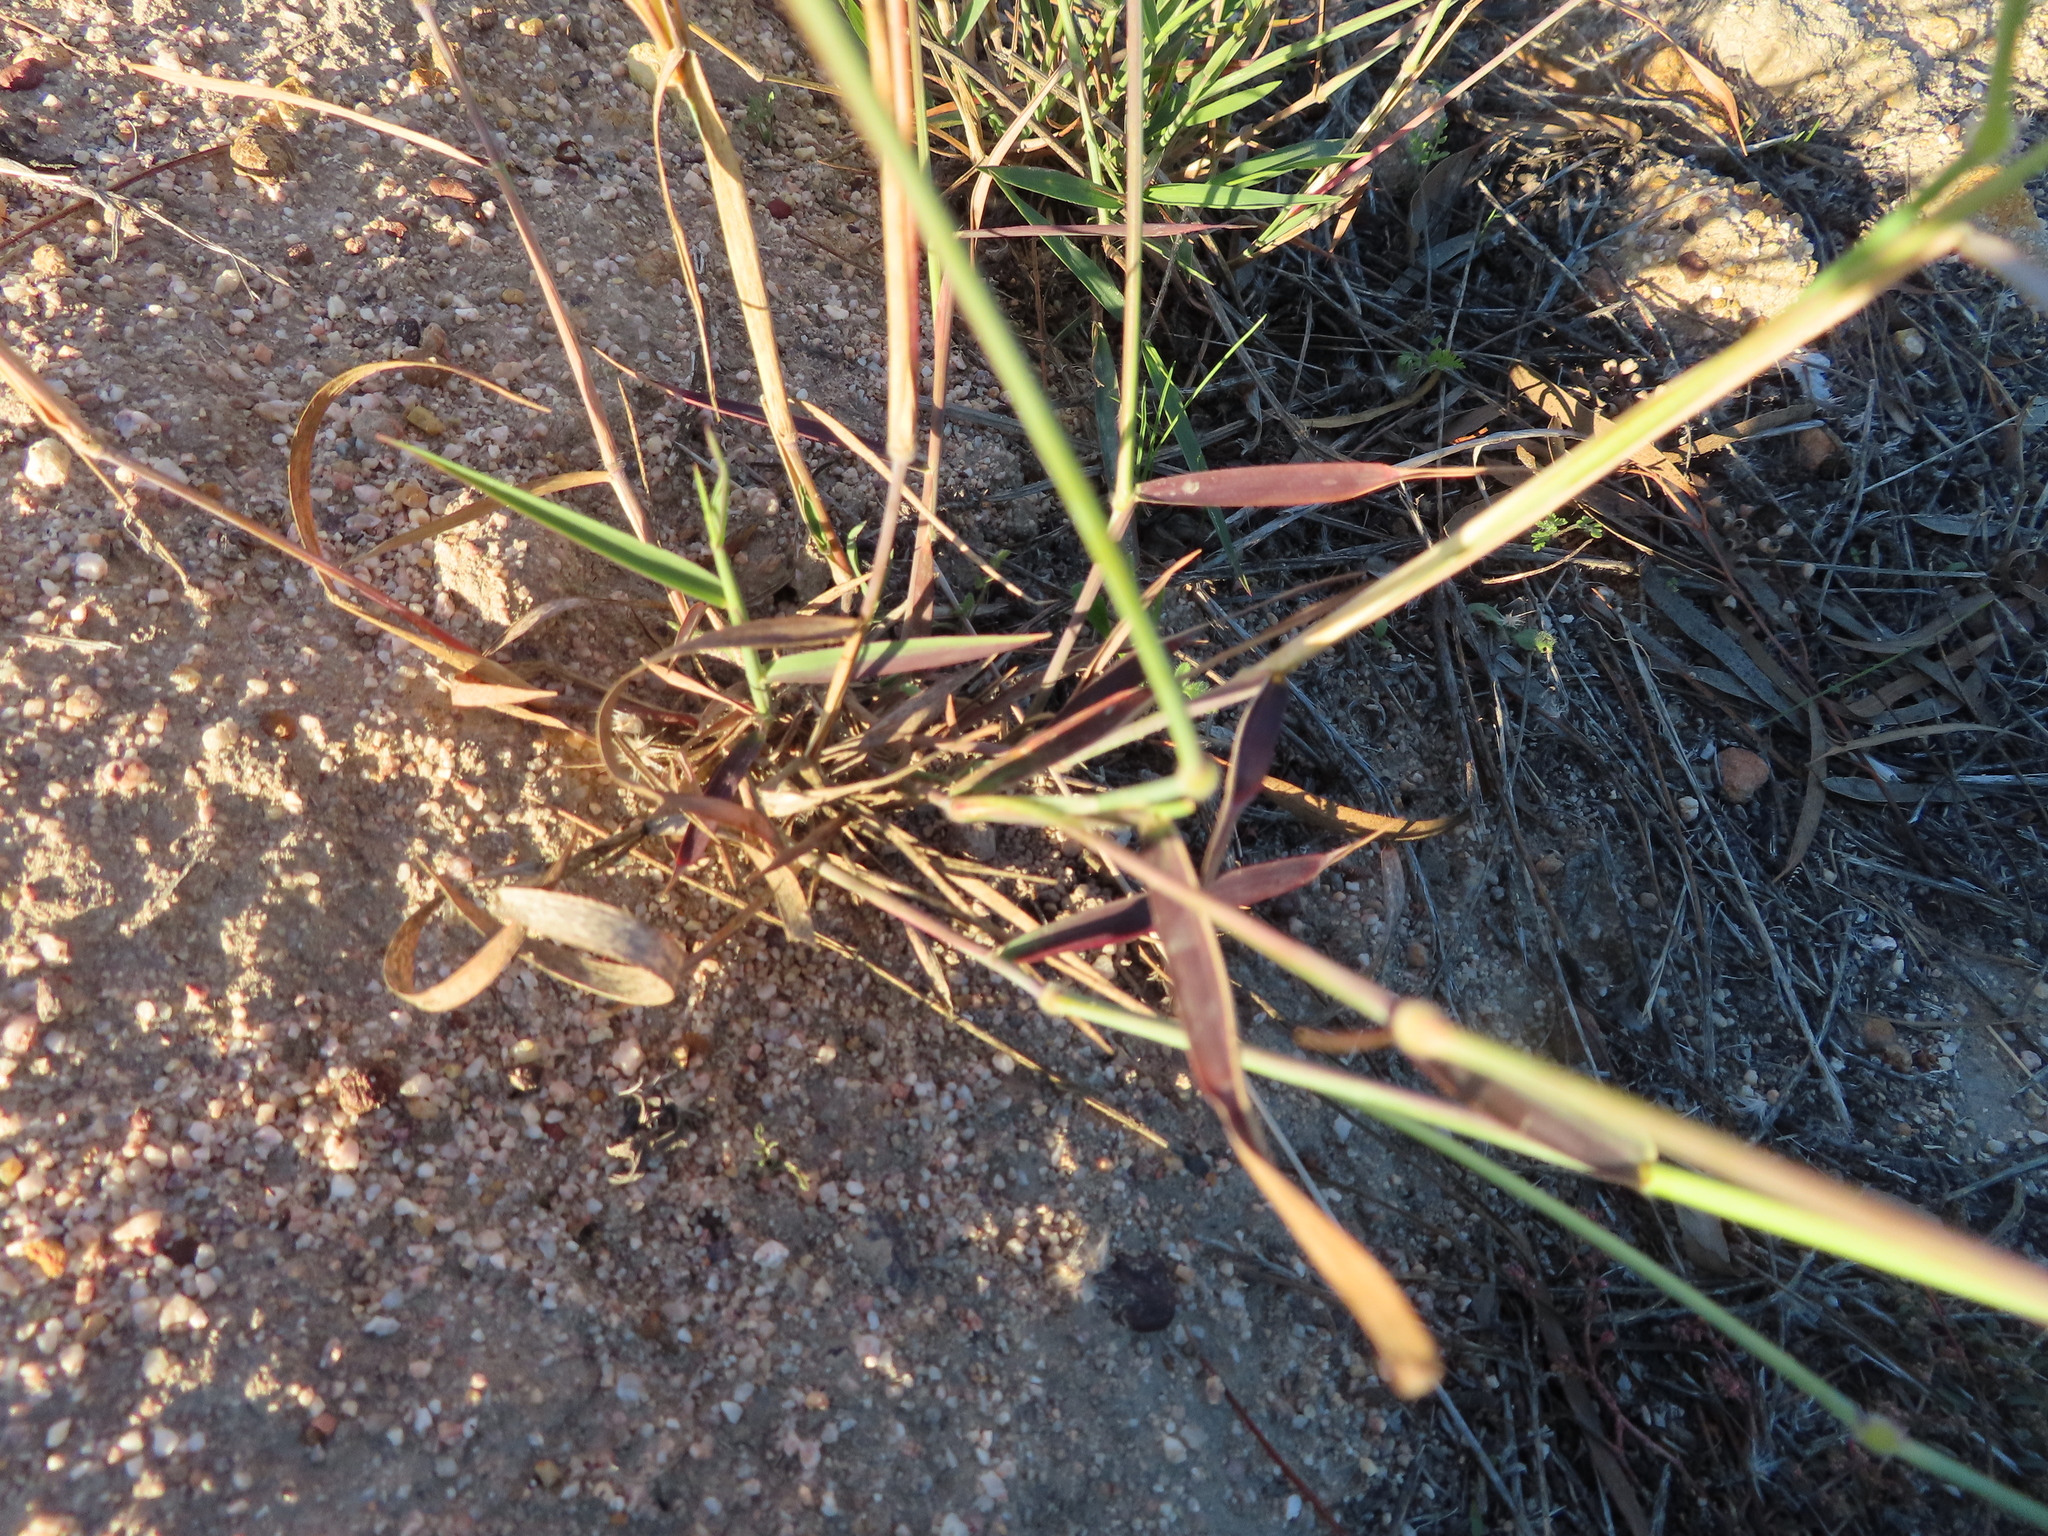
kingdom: Plantae
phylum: Tracheophyta
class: Liliopsida
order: Poales
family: Poaceae
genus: Melinis
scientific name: Melinis repens
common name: Rose natal grass
